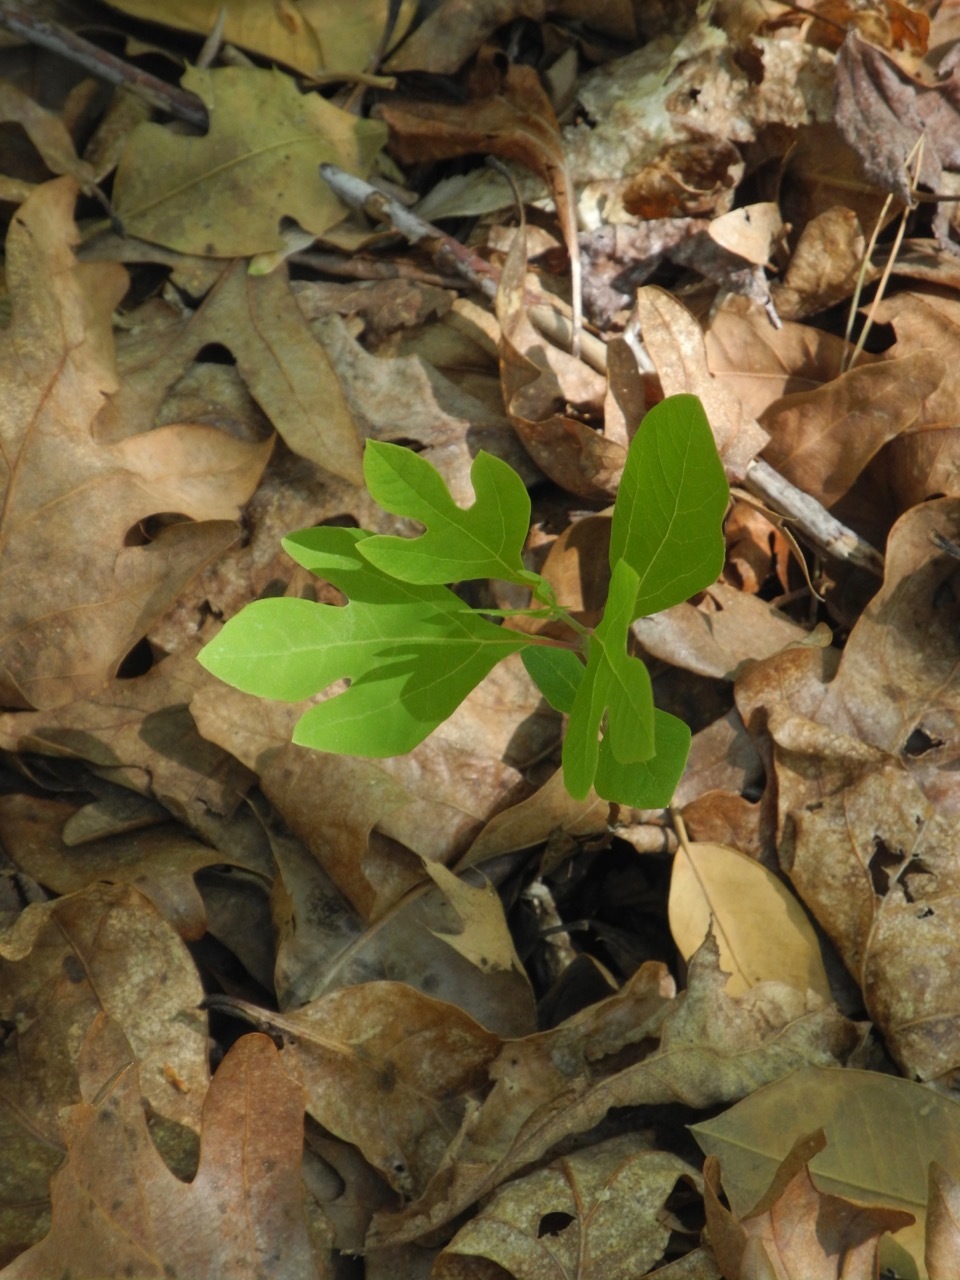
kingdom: Plantae
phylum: Tracheophyta
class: Magnoliopsida
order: Laurales
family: Lauraceae
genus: Sassafras
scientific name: Sassafras albidum
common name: Sassafras
